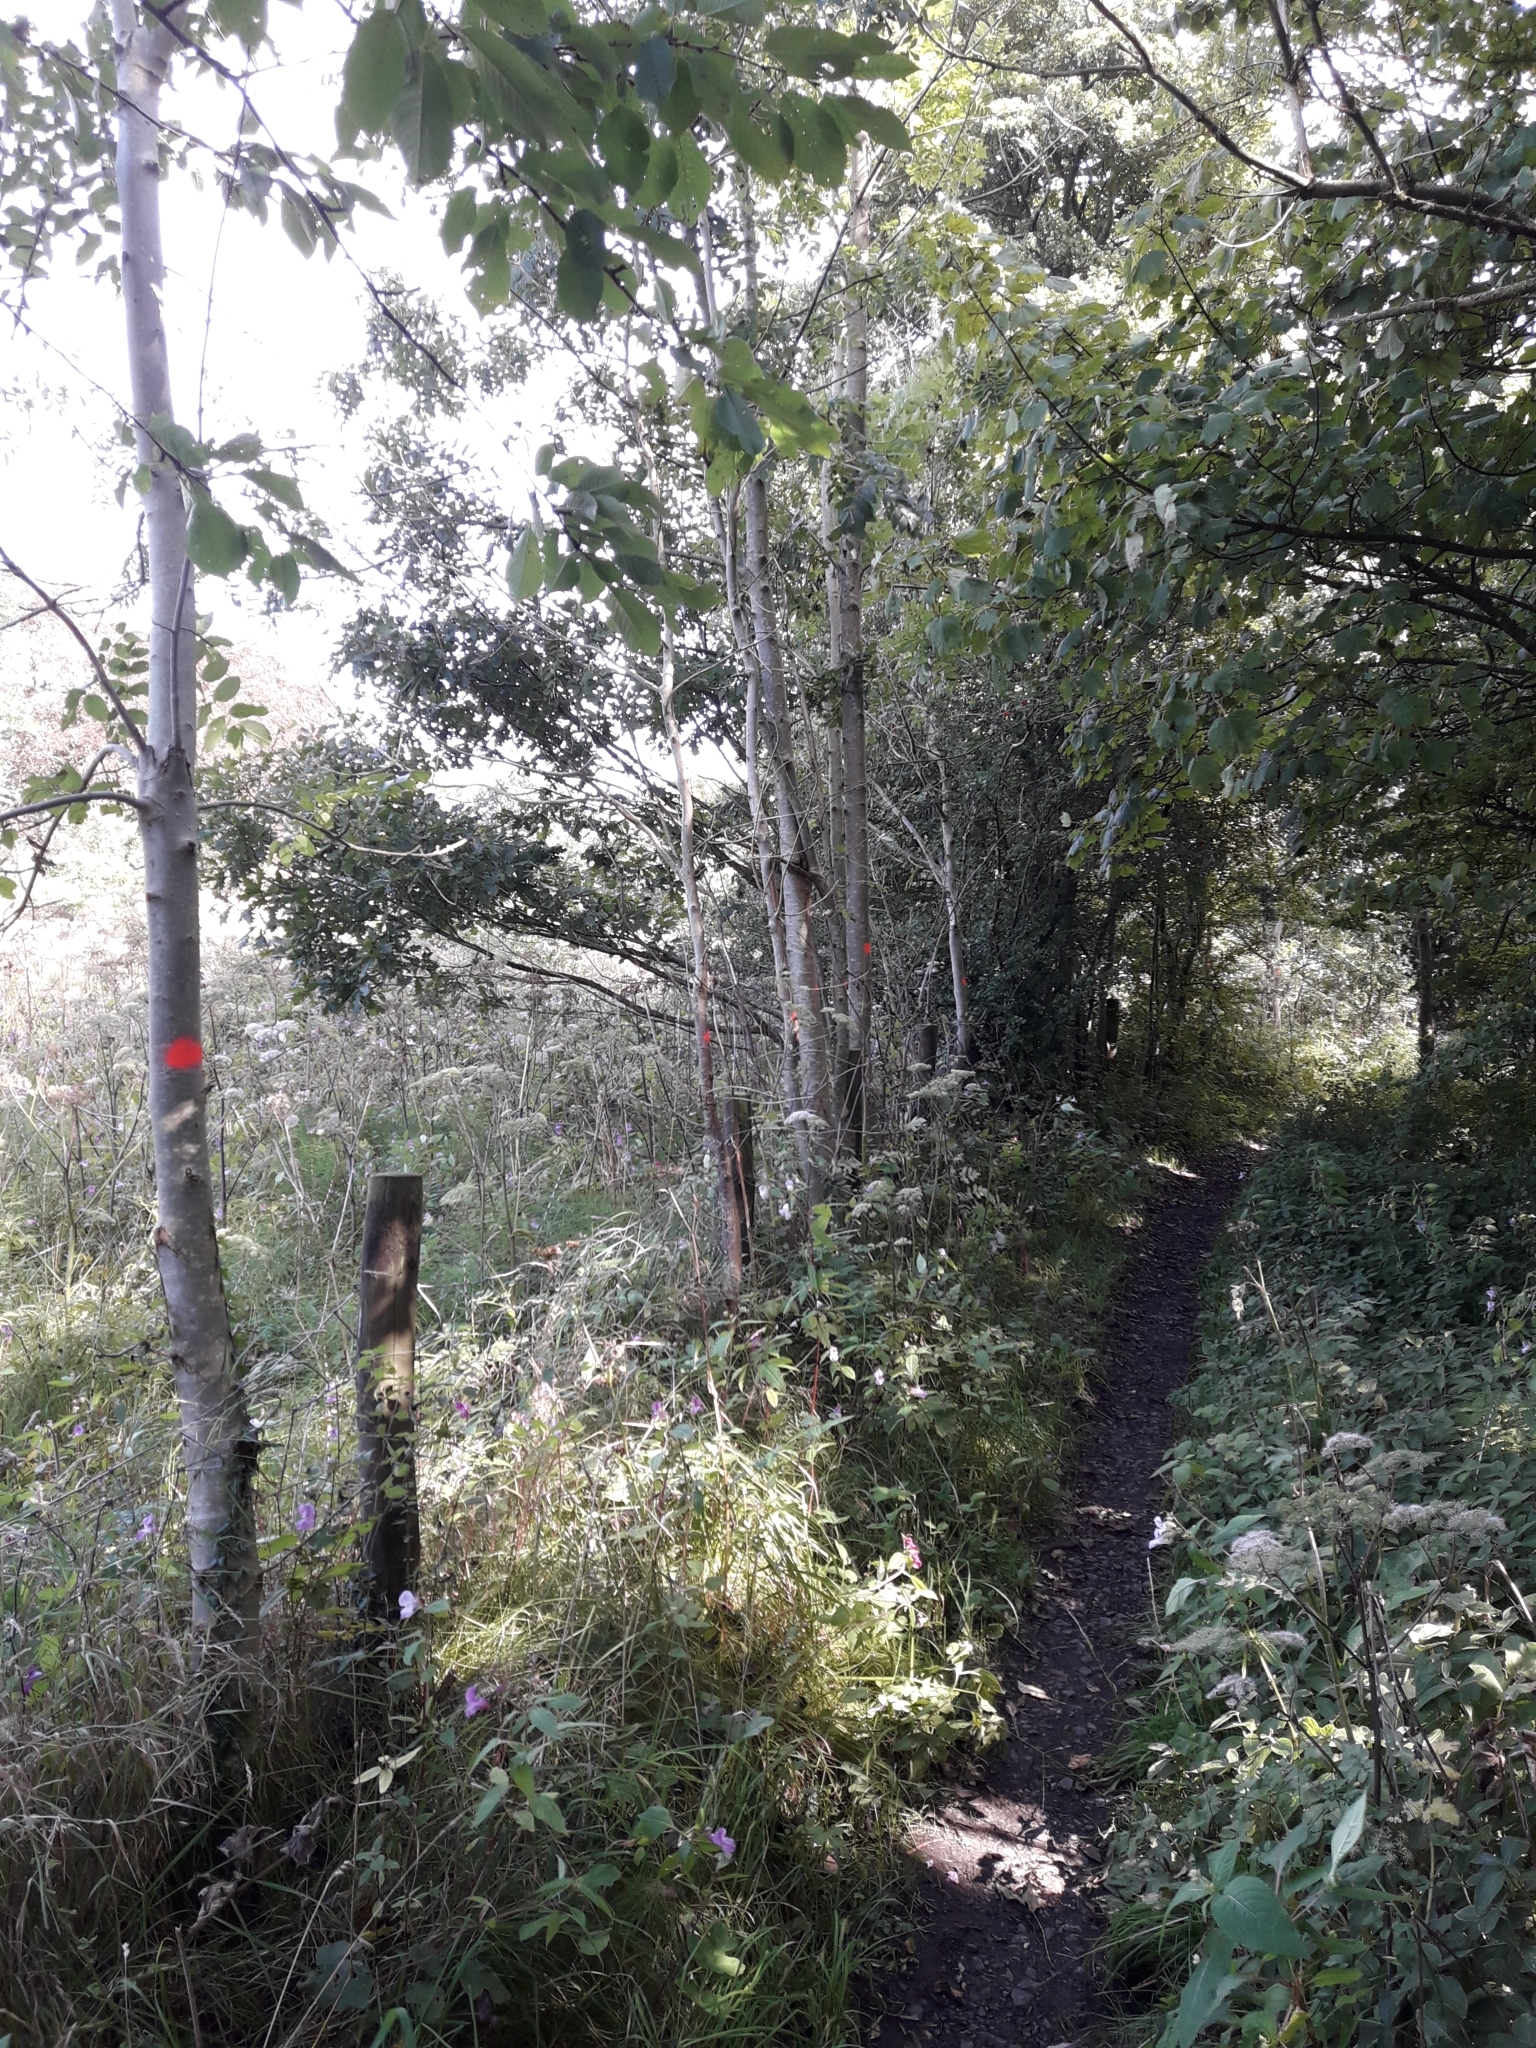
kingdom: Plantae
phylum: Tracheophyta
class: Magnoliopsida
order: Lamiales
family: Oleaceae
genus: Fraxinus
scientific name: Fraxinus excelsior
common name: European ash
